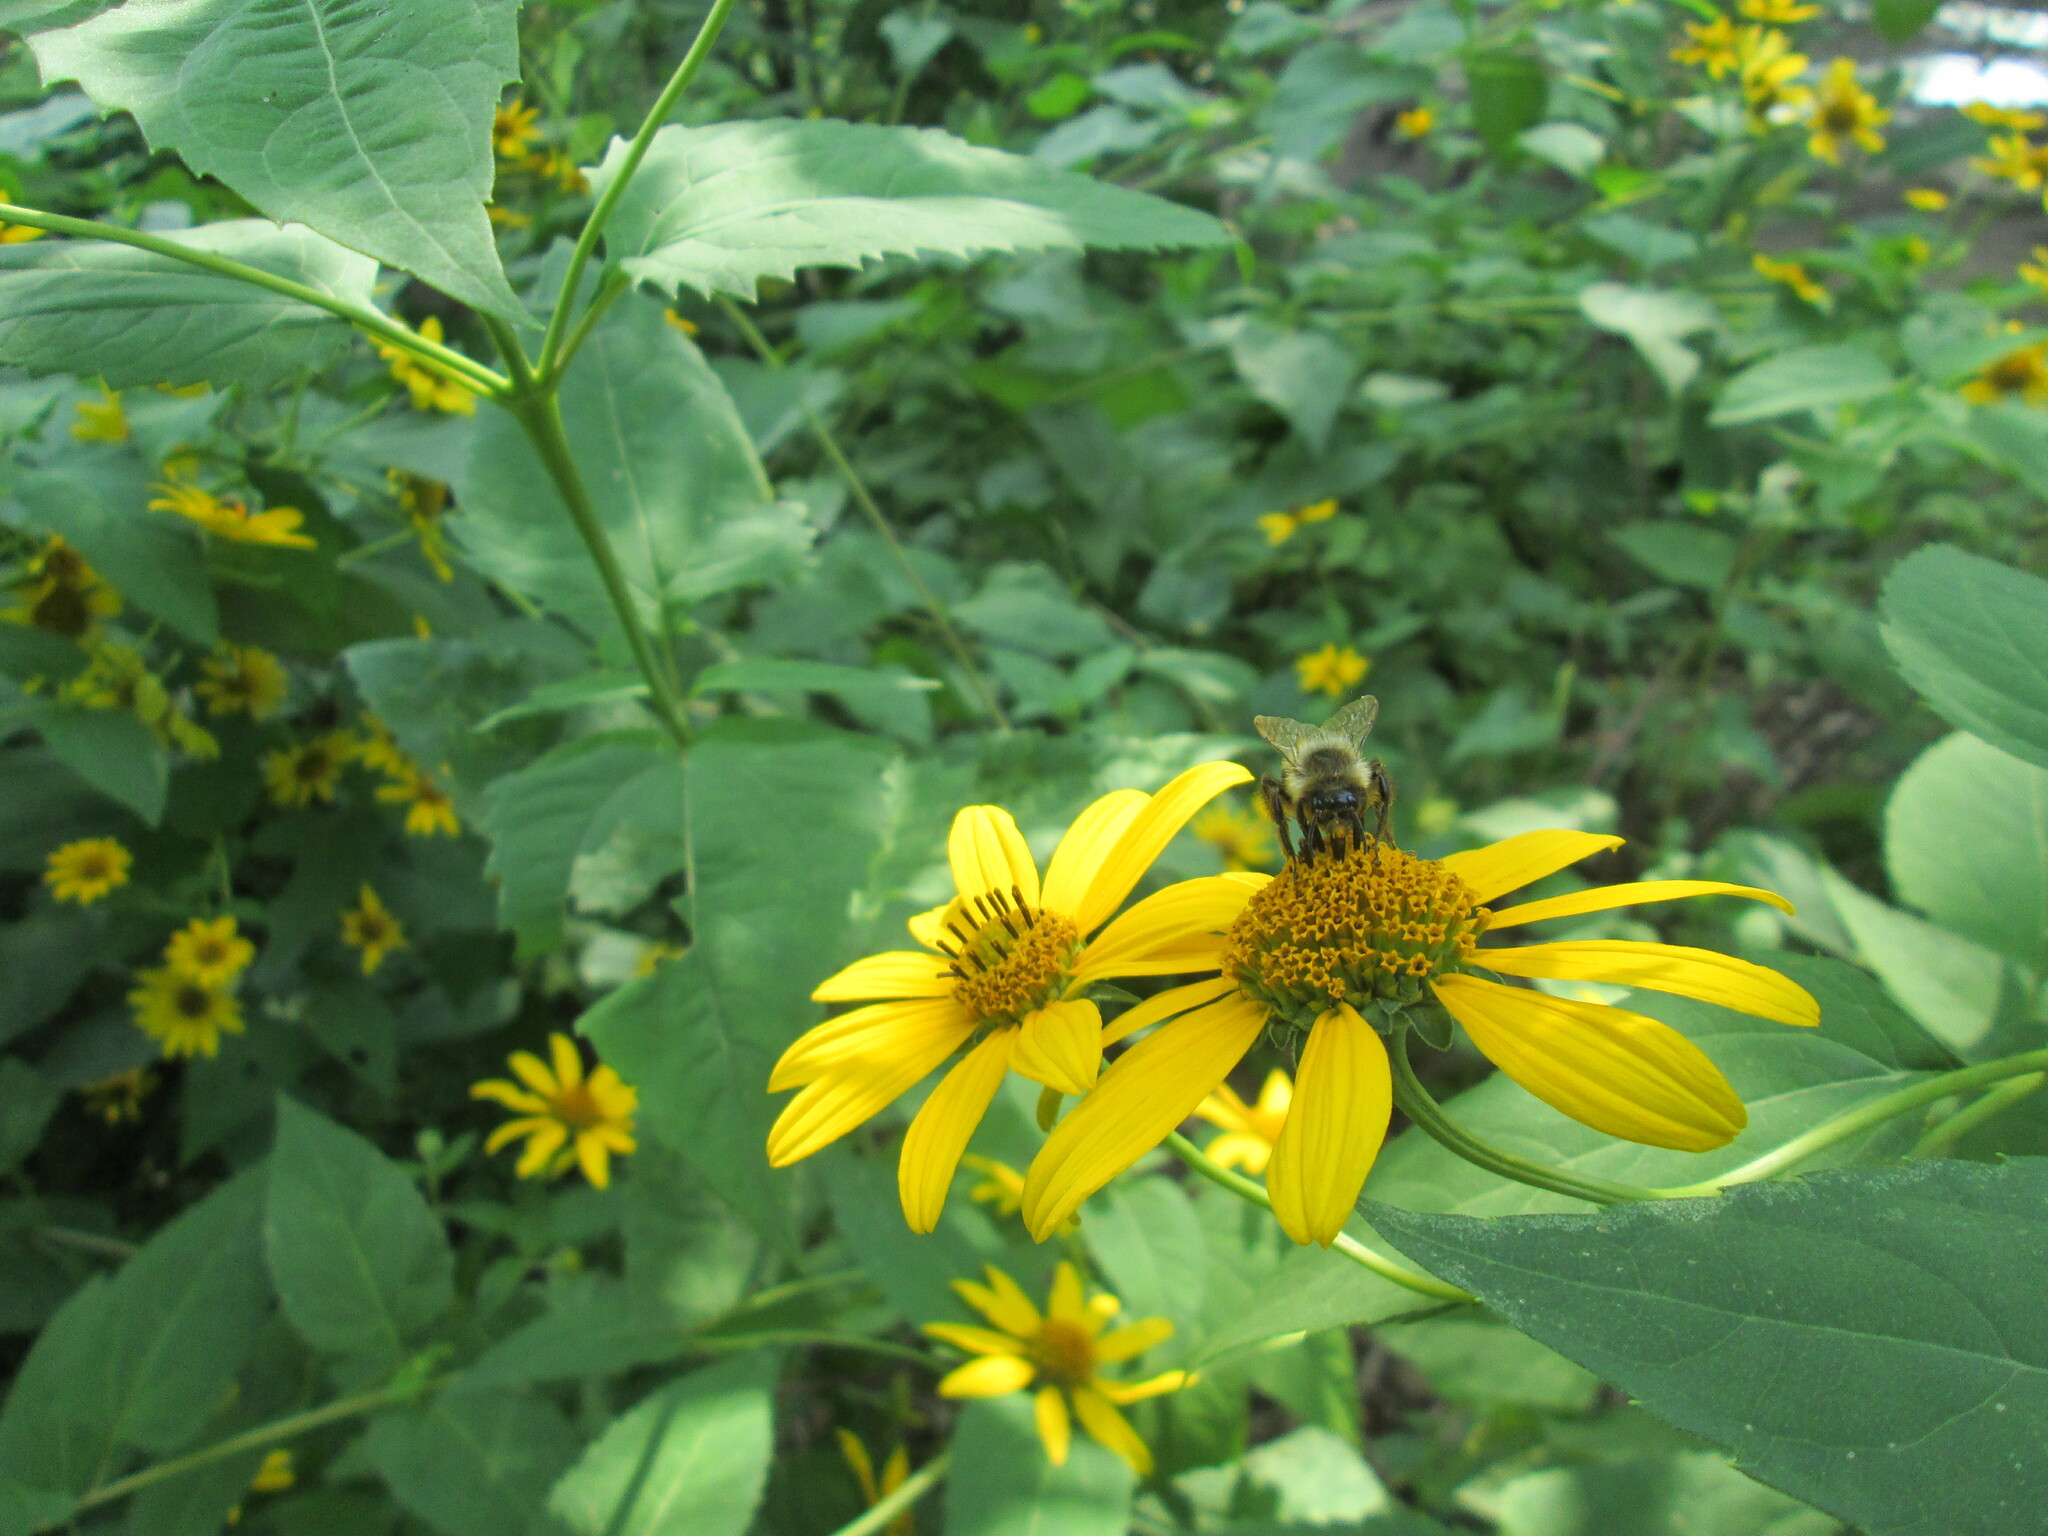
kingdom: Animalia
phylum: Arthropoda
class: Insecta
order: Hymenoptera
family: Apidae
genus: Bombus
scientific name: Bombus impatiens
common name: Common eastern bumble bee
